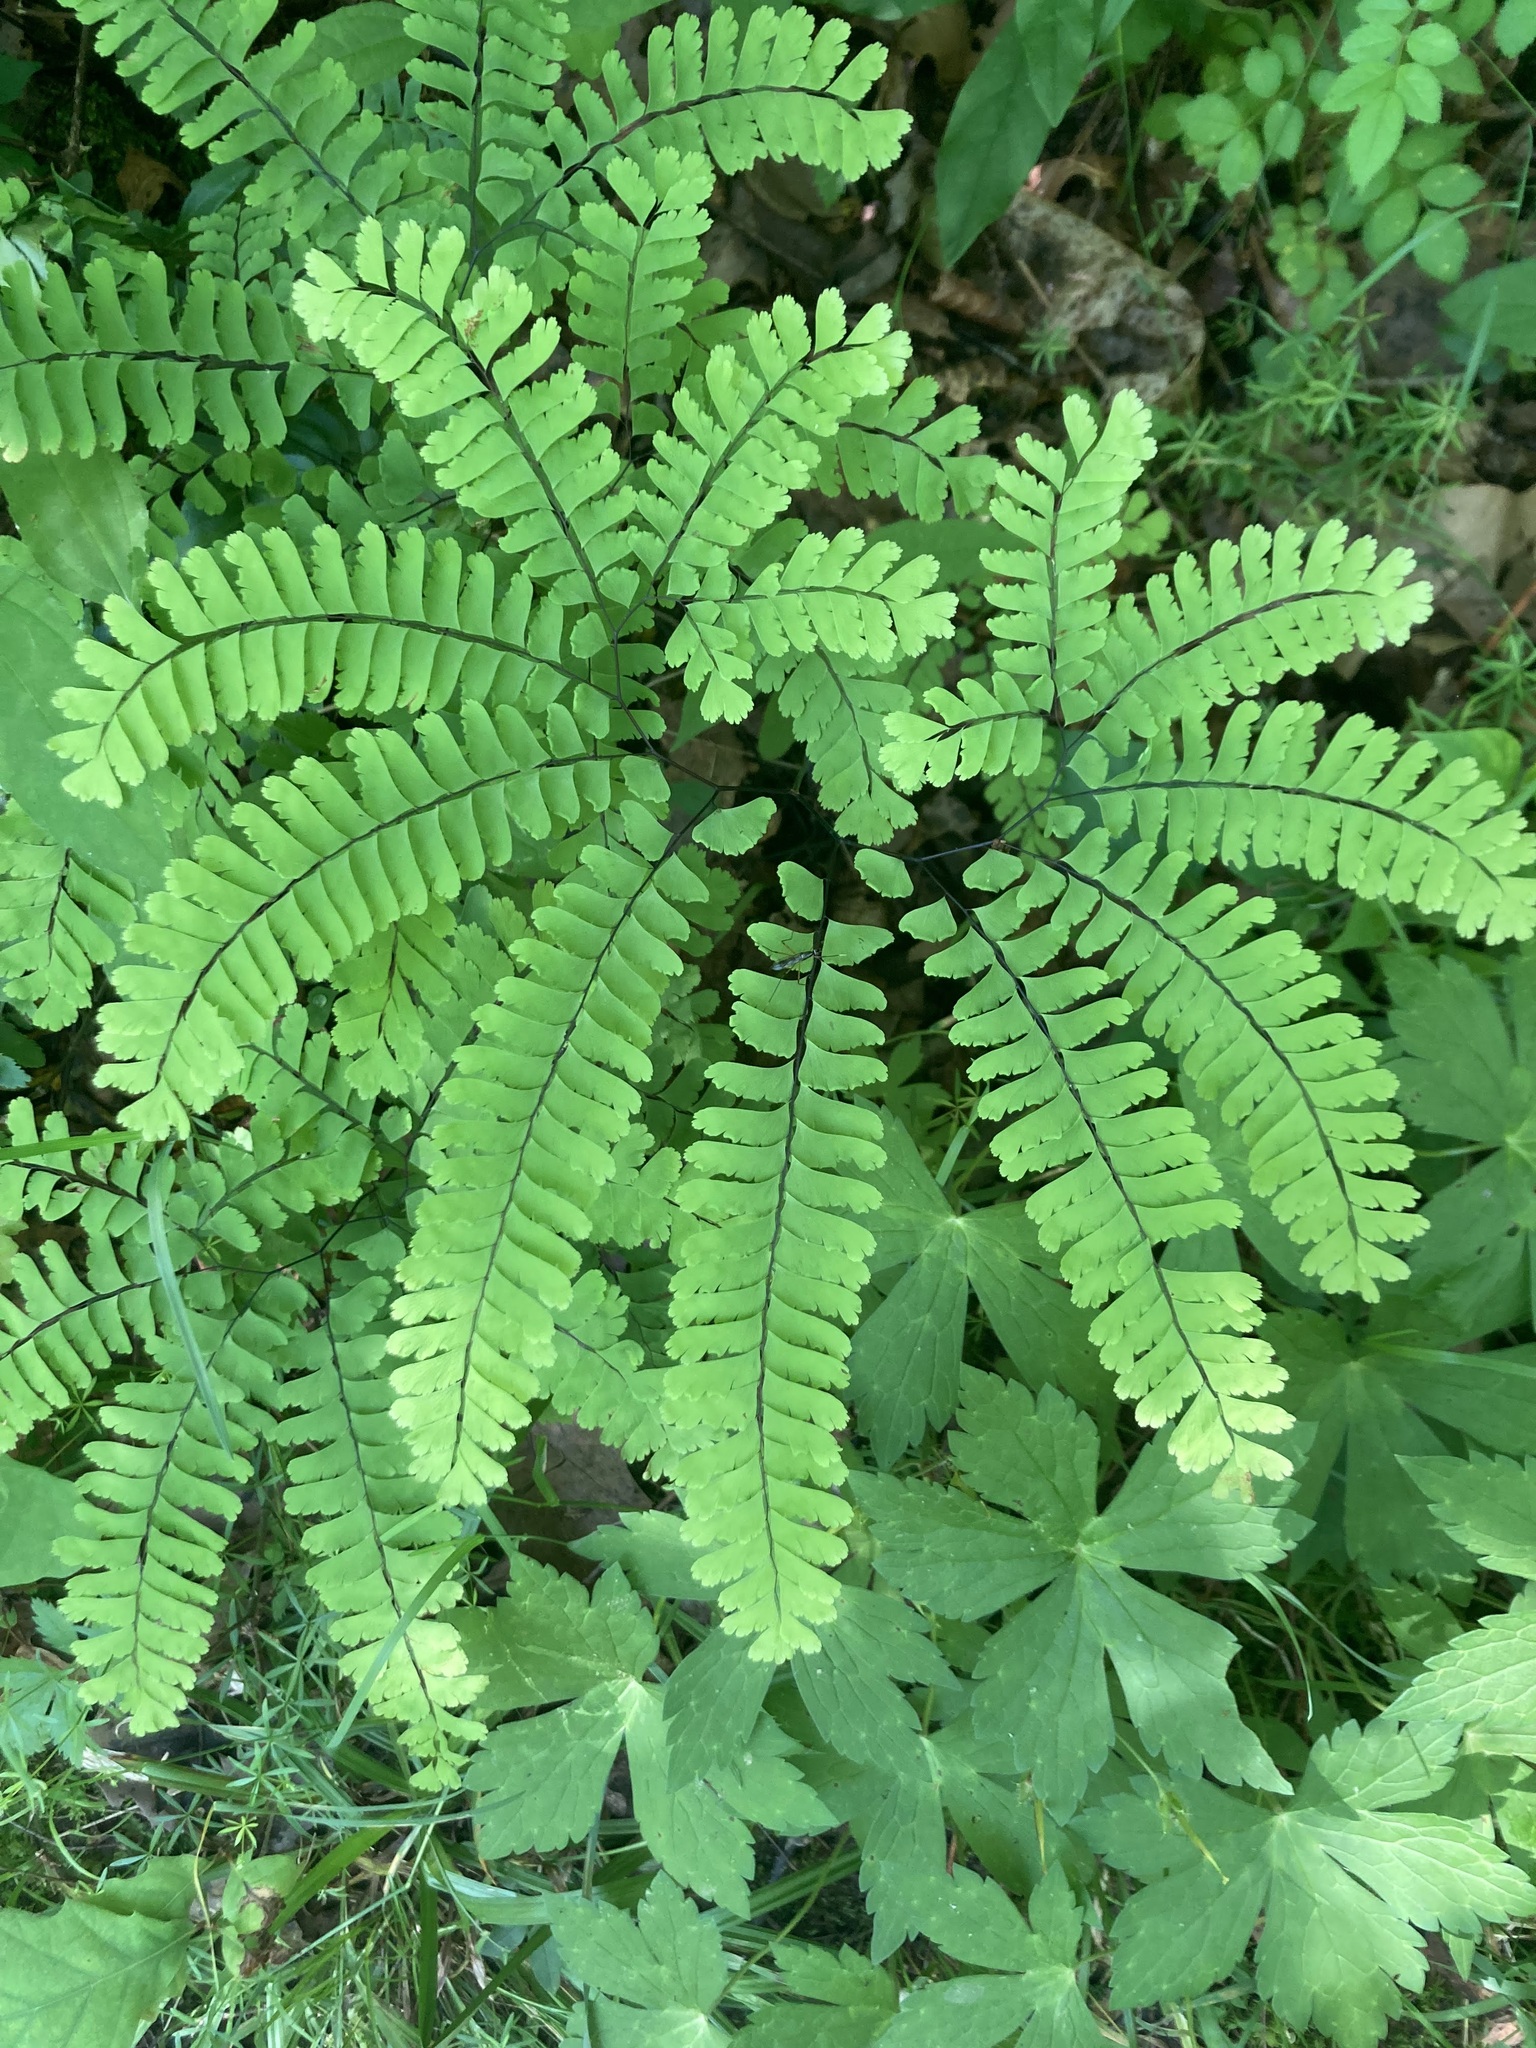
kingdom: Plantae
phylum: Tracheophyta
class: Polypodiopsida
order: Polypodiales
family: Pteridaceae
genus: Adiantum
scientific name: Adiantum pedatum
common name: Five-finger fern
